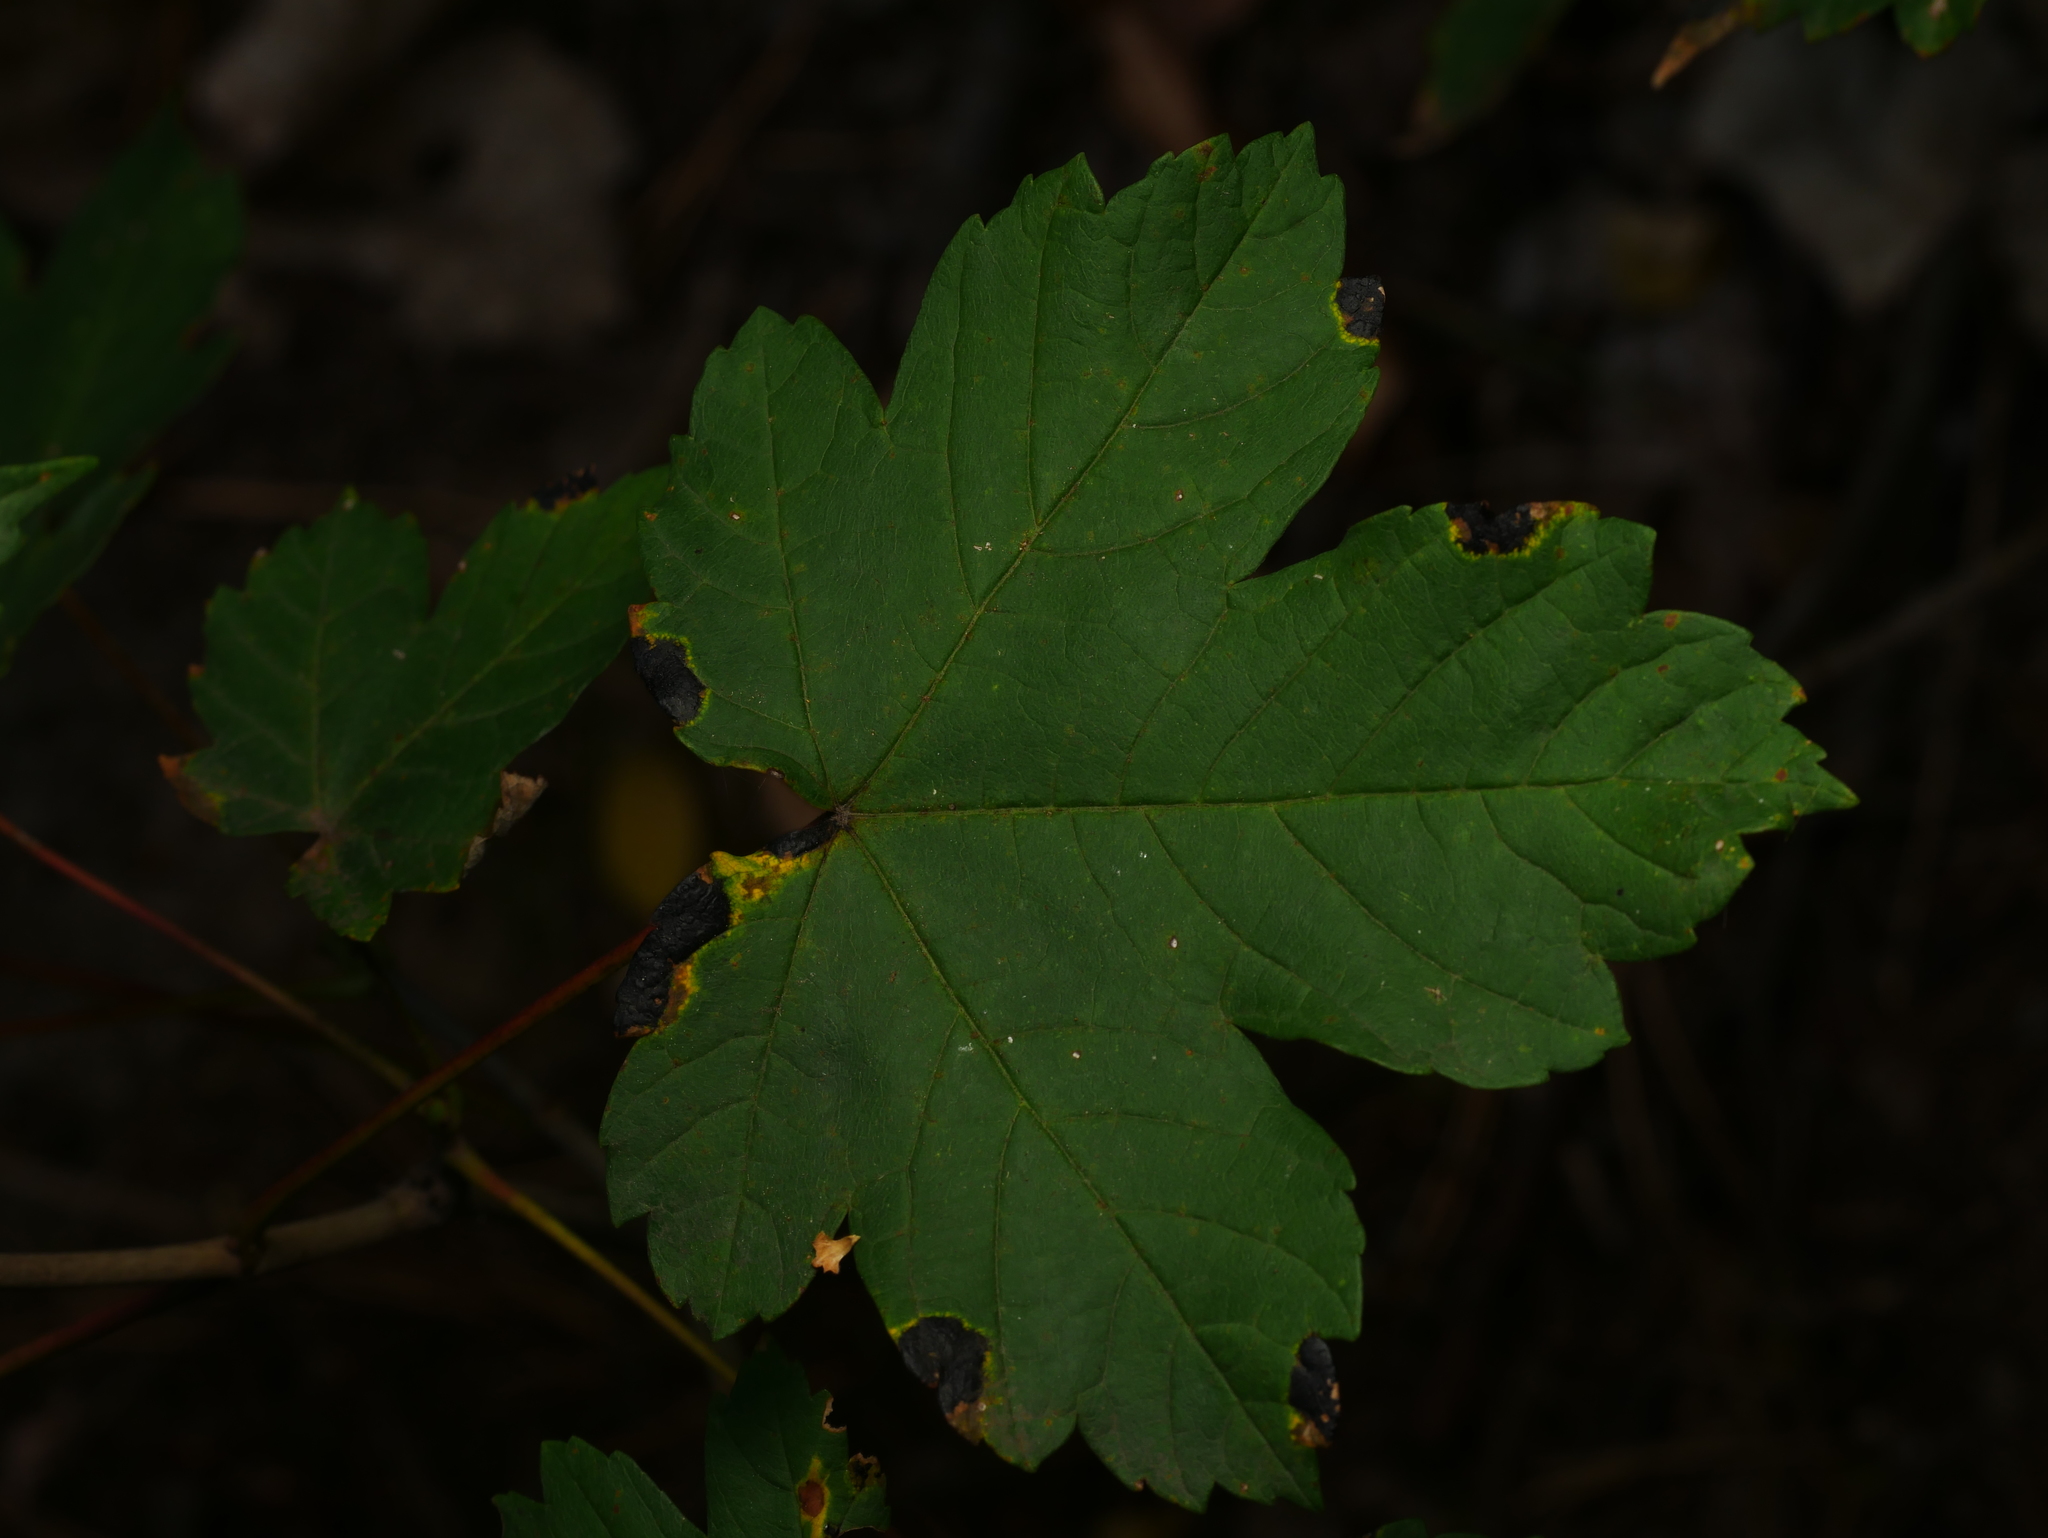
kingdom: Plantae
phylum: Tracheophyta
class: Magnoliopsida
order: Sapindales
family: Sapindaceae
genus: Acer
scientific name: Acer pseudoplatanus
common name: Sycamore
